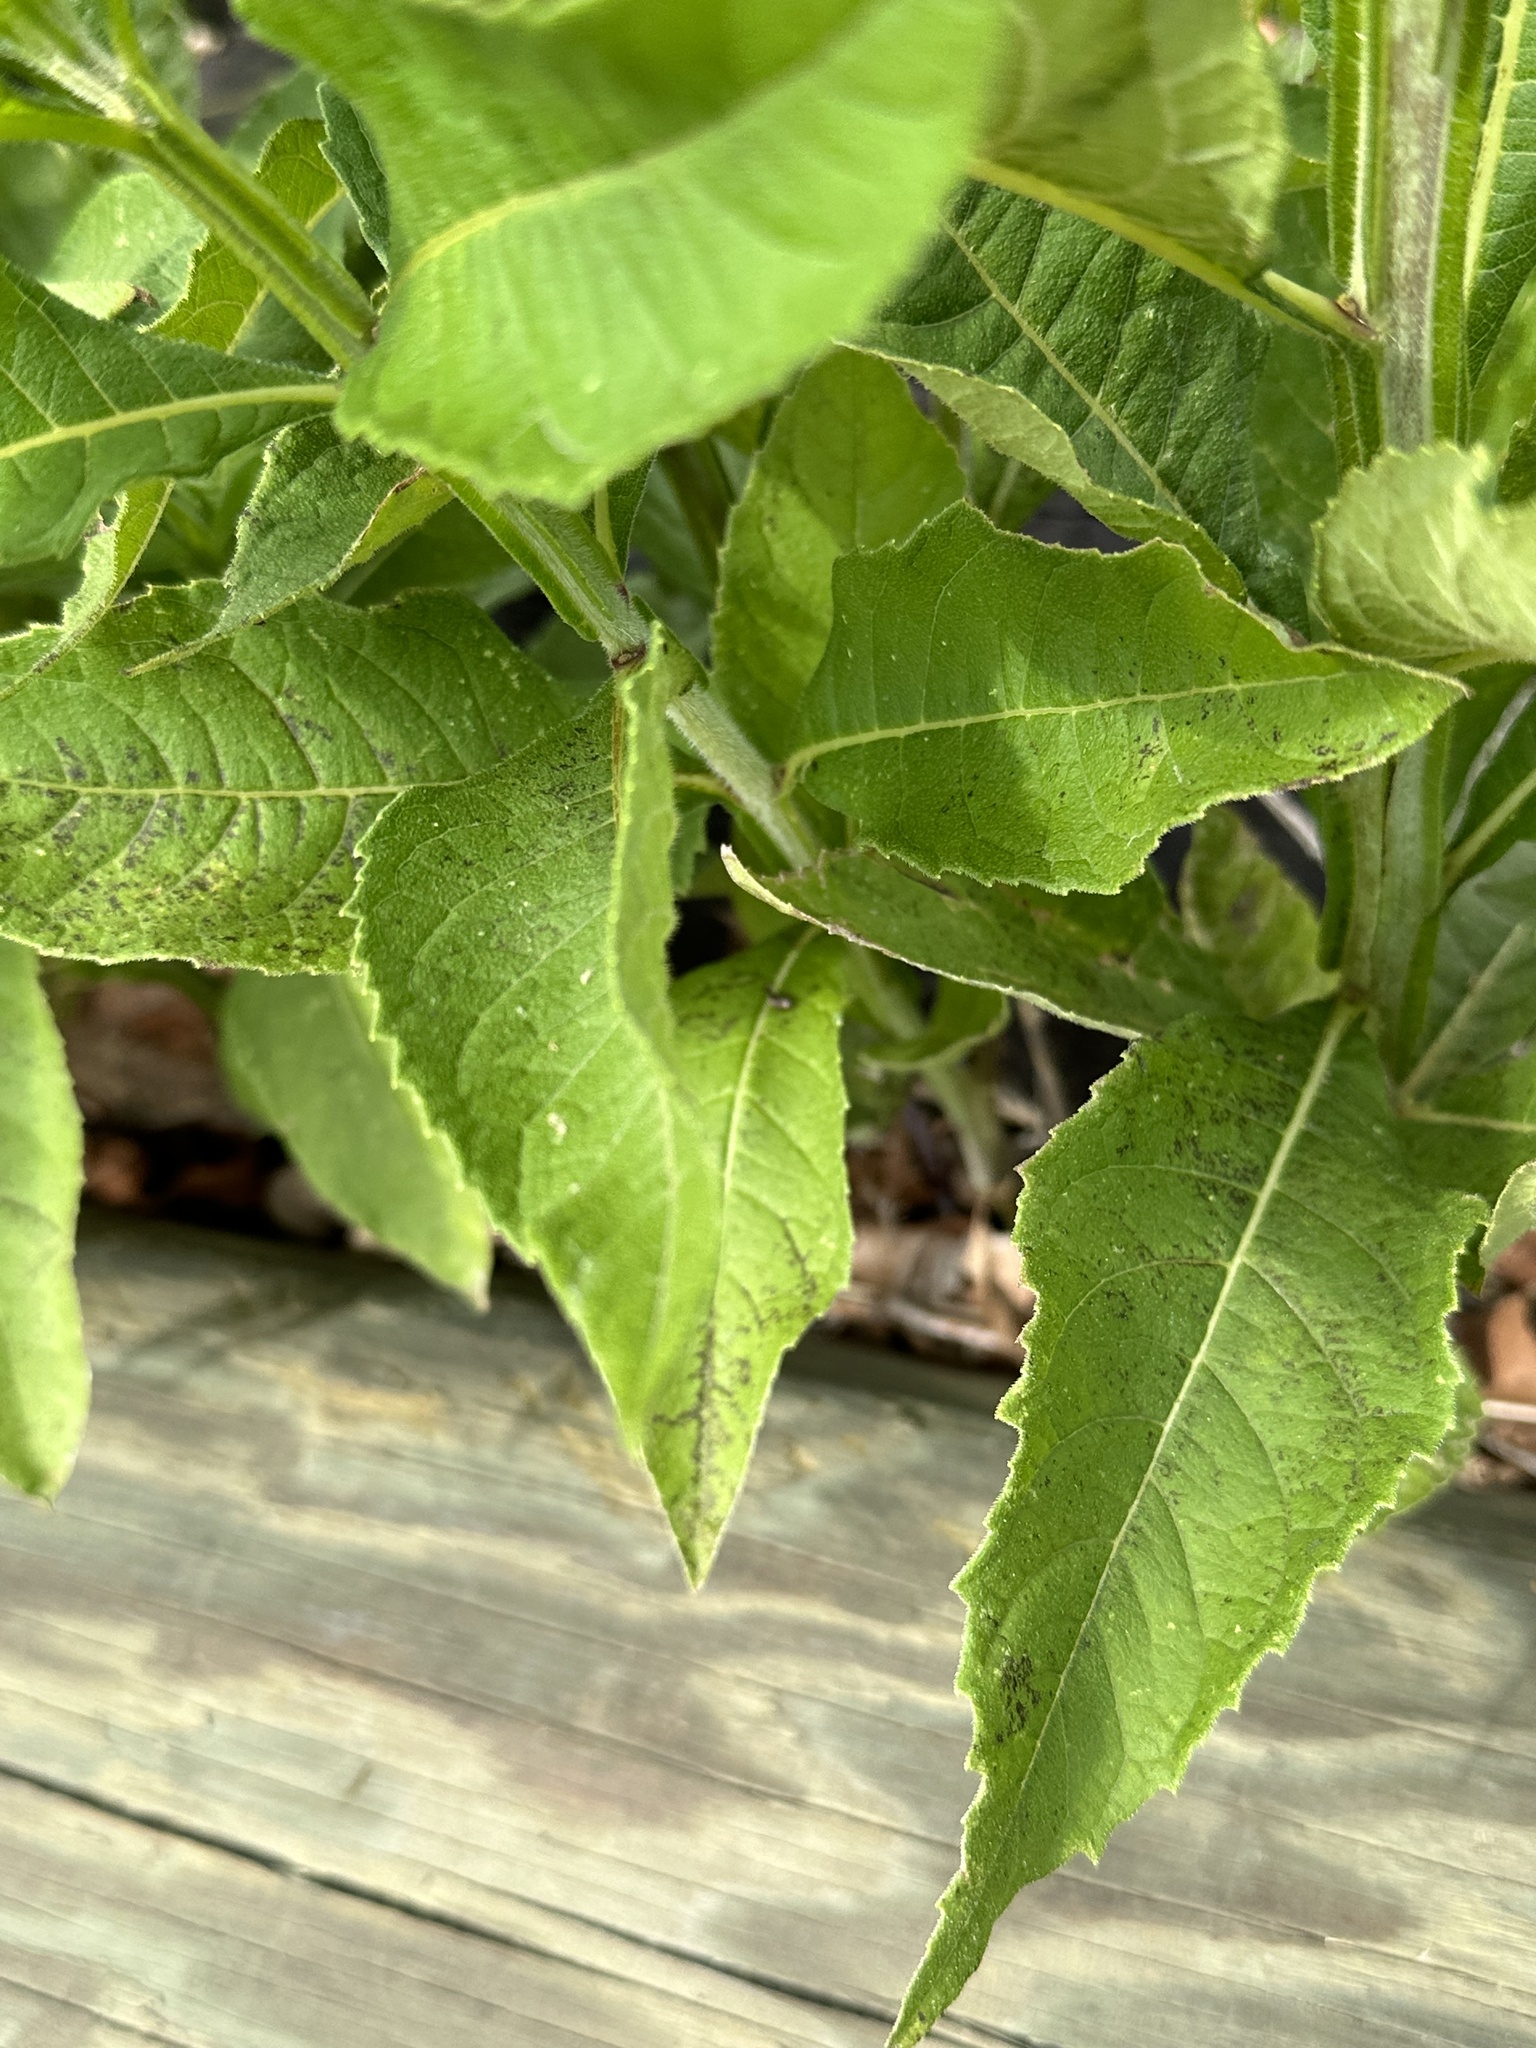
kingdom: Plantae
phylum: Tracheophyta
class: Magnoliopsida
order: Asterales
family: Asteraceae
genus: Verbesina
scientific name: Verbesina alternifolia
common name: Wingstem
